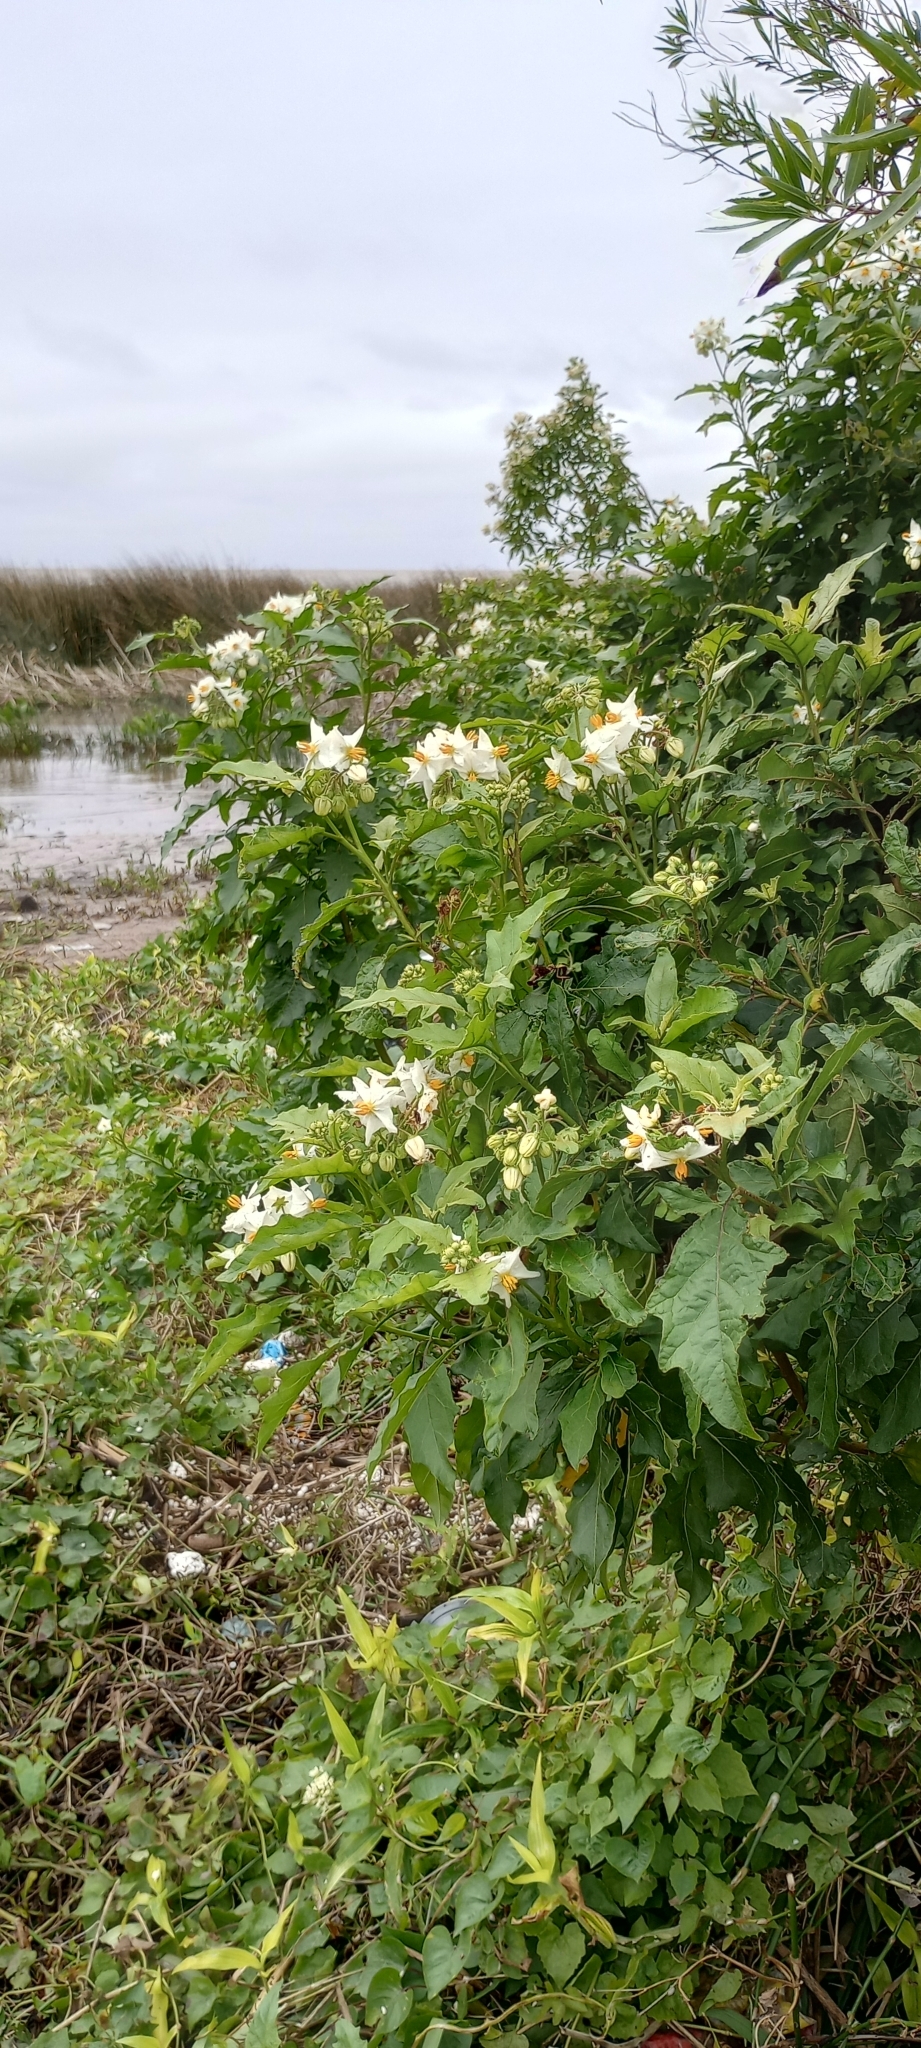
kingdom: Plantae
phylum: Tracheophyta
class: Magnoliopsida
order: Solanales
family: Solanaceae
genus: Solanum
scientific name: Solanum bonariense
